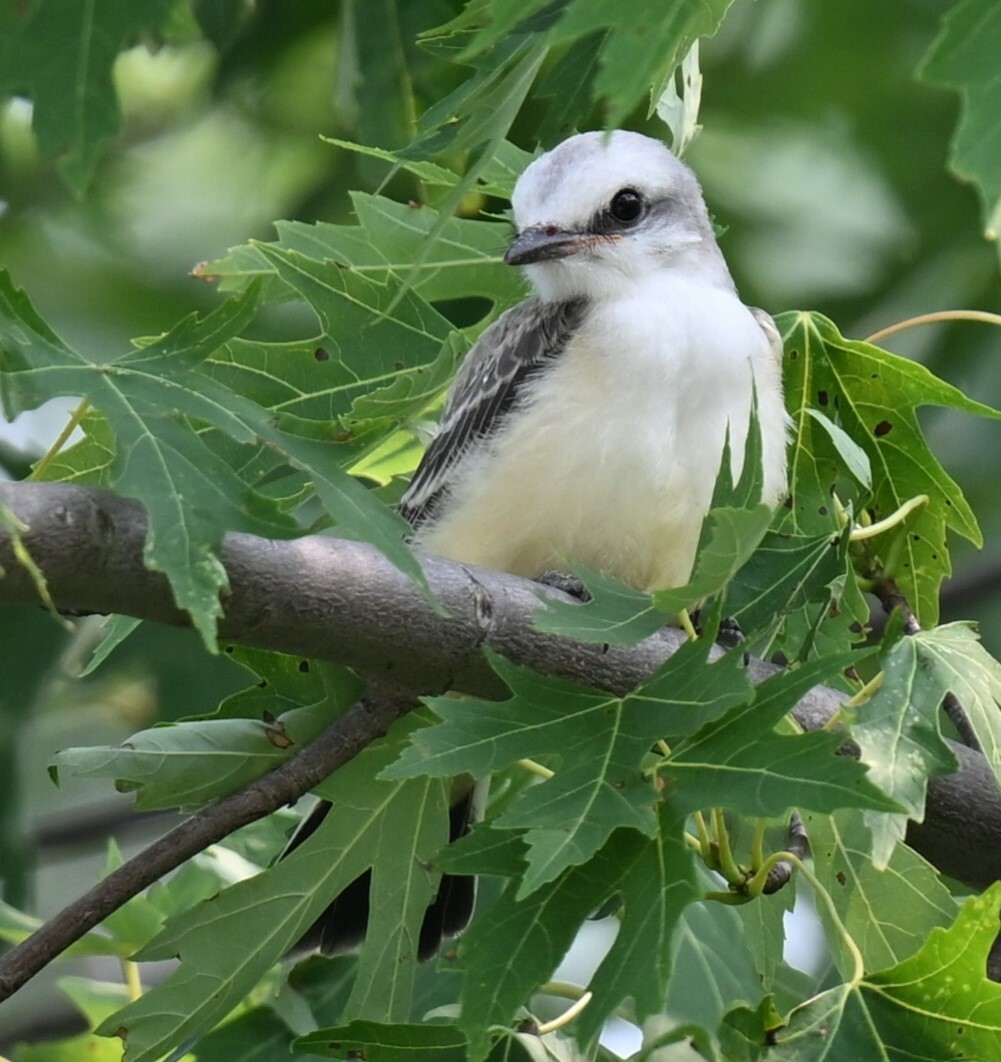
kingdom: Animalia
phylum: Chordata
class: Aves
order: Passeriformes
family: Tyrannidae
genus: Tyrannus
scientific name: Tyrannus forficatus
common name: Scissor-tailed flycatcher
